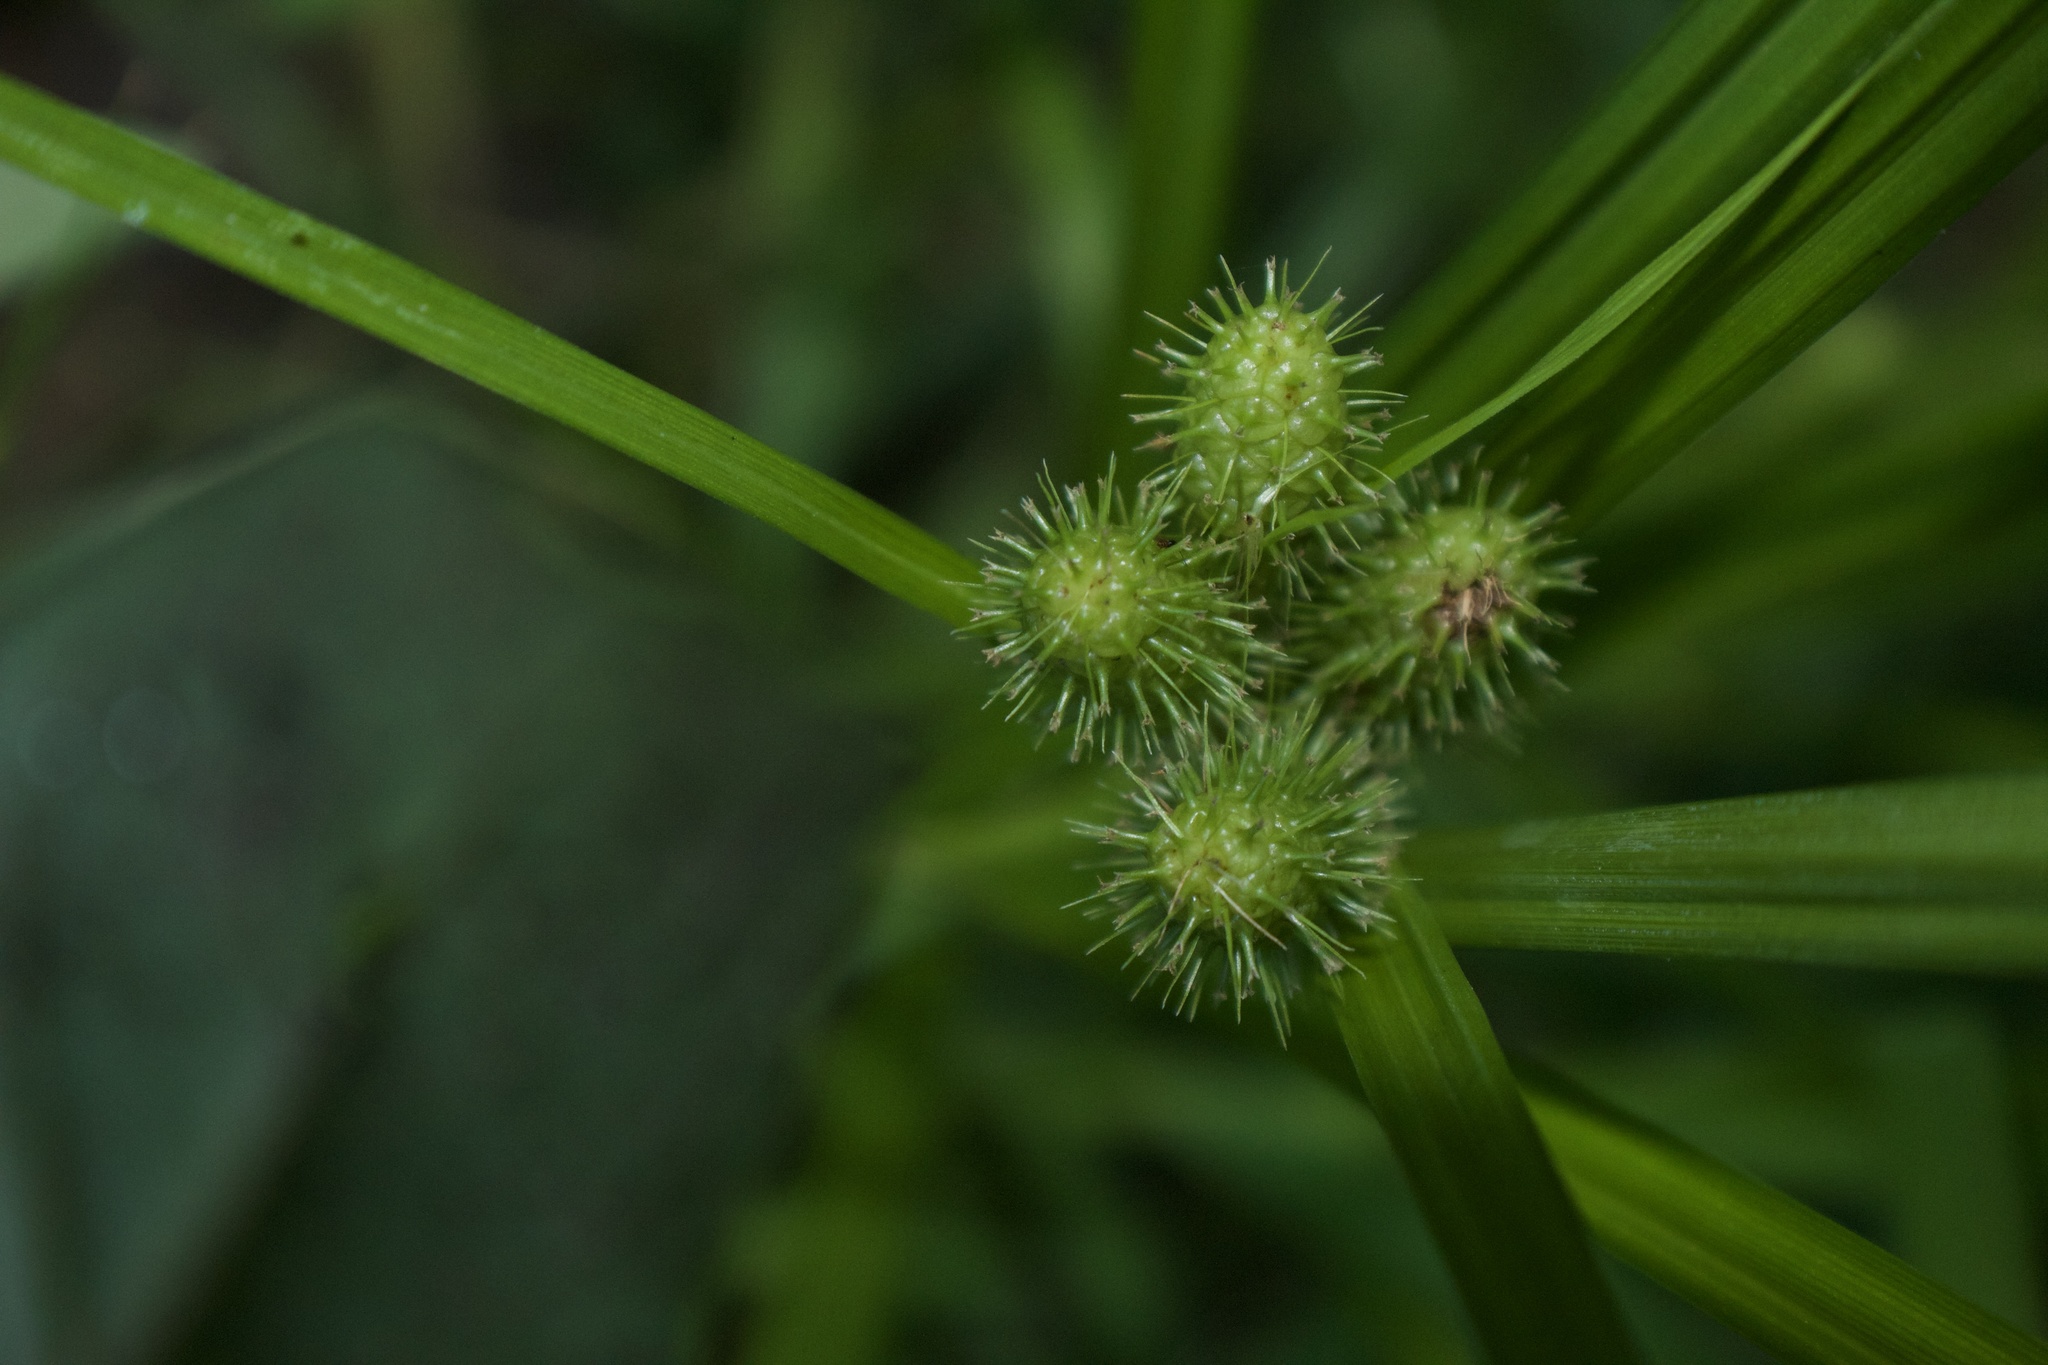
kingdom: Plantae
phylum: Tracheophyta
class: Liliopsida
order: Poales
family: Cyperaceae
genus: Carex
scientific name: Carex frankii
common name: Frank's sedge
